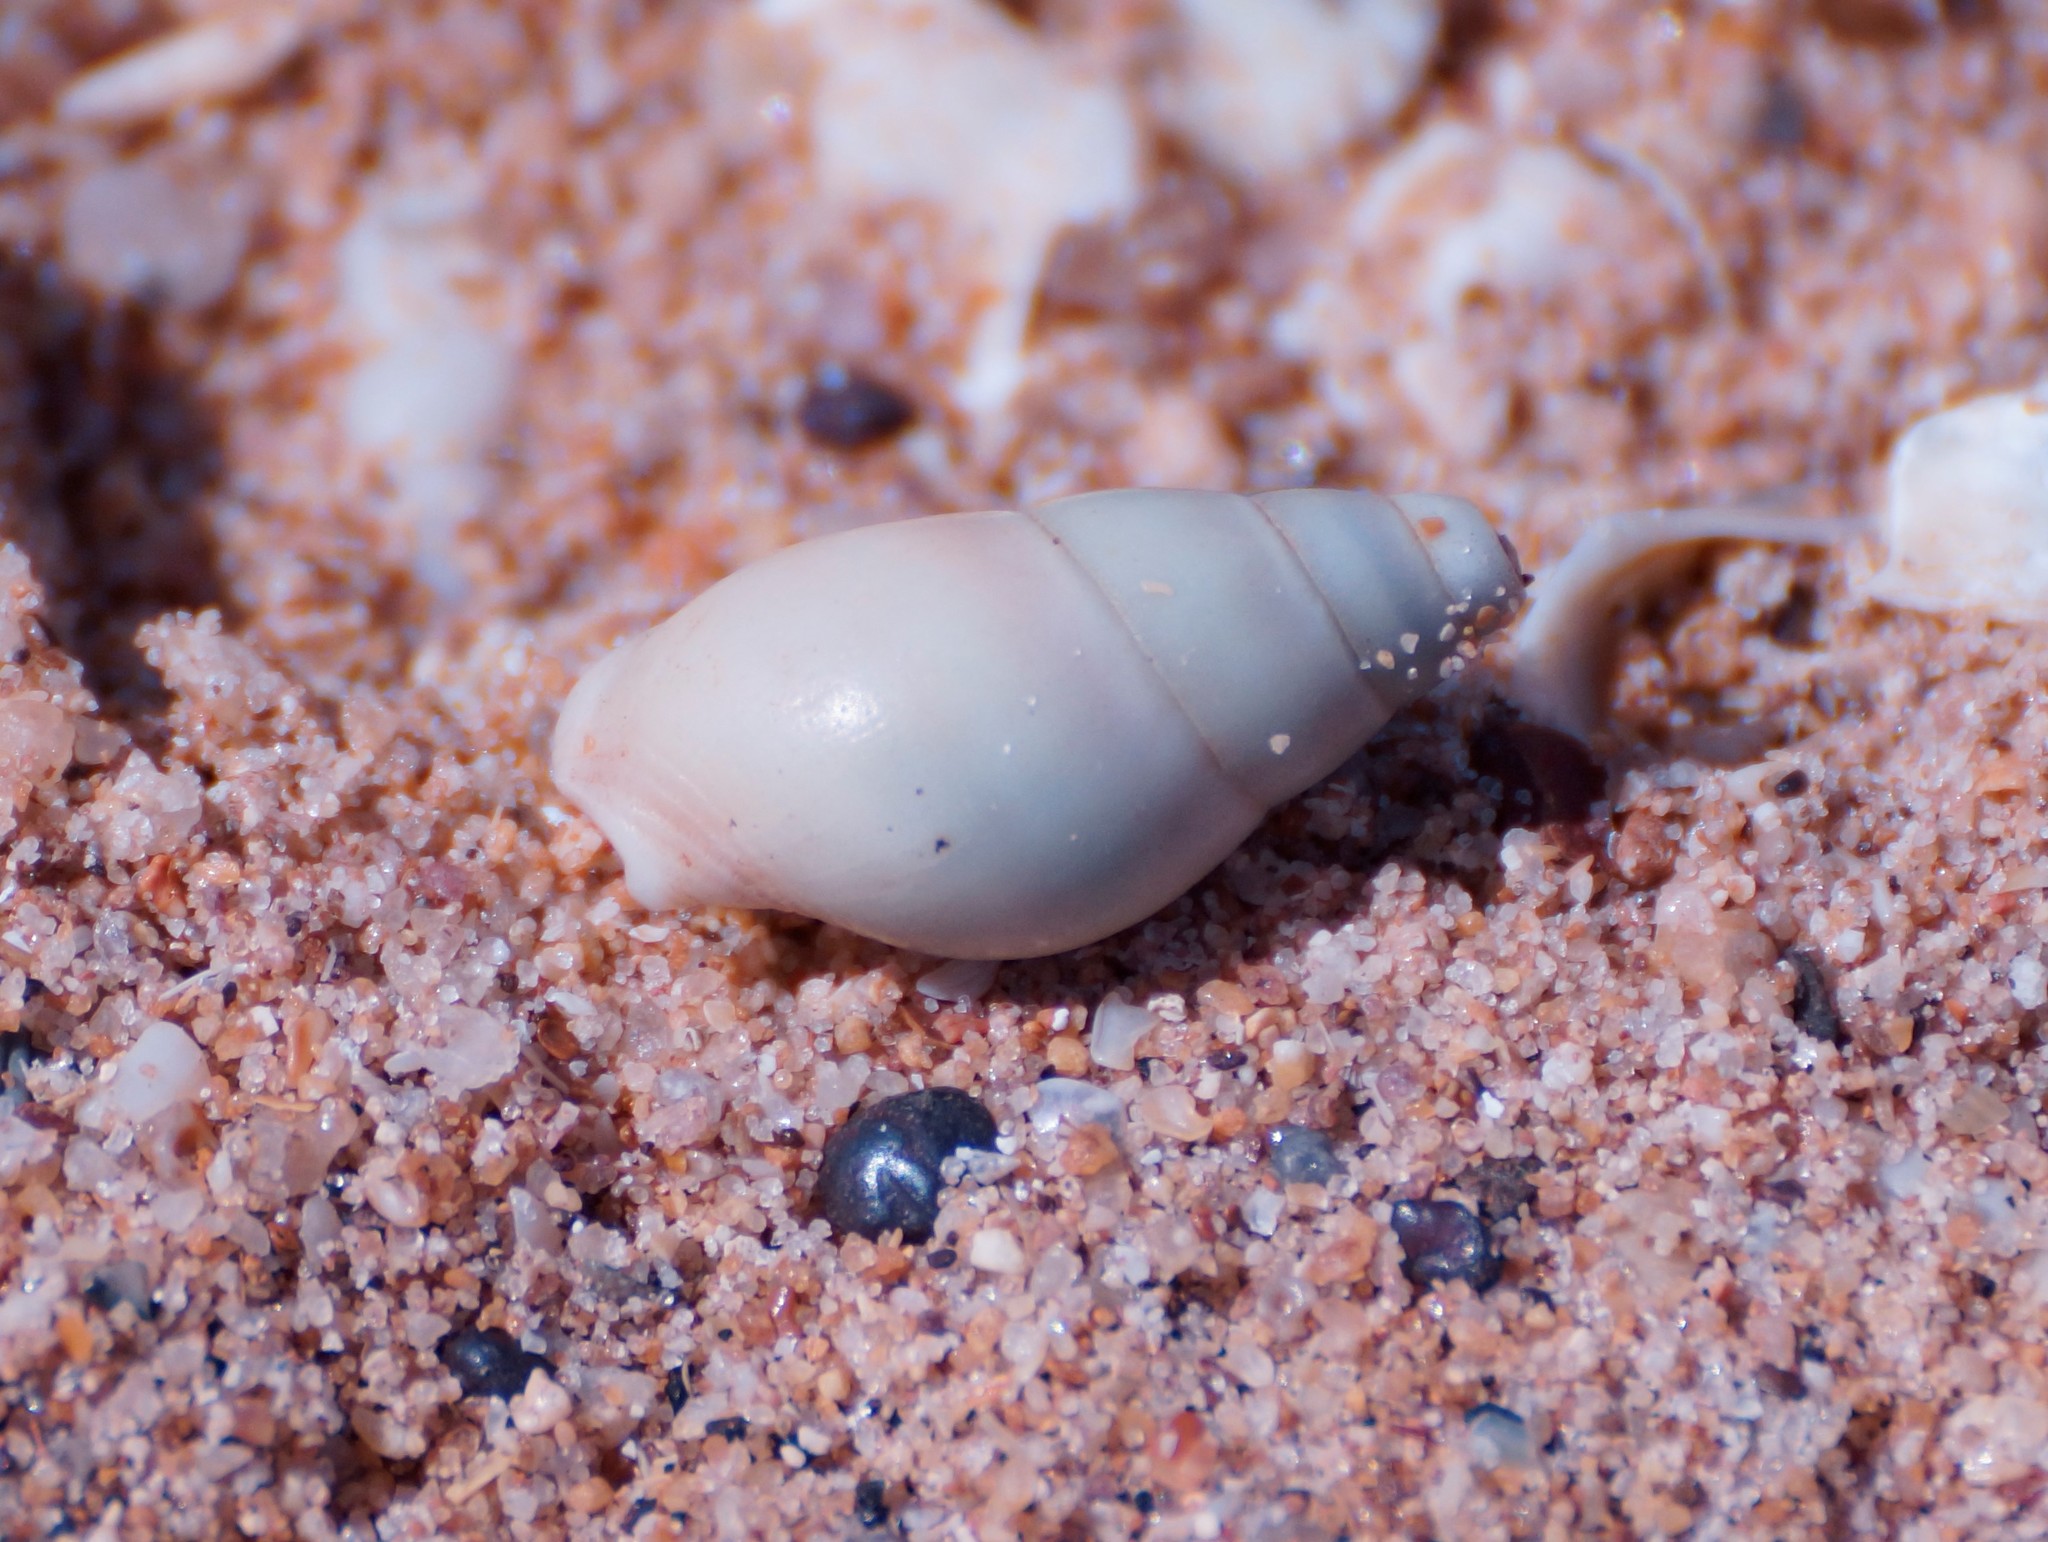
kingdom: Animalia
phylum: Mollusca
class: Gastropoda
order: Neogastropoda
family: Nassariidae
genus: Nassarius
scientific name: Nassarius dorsatus
